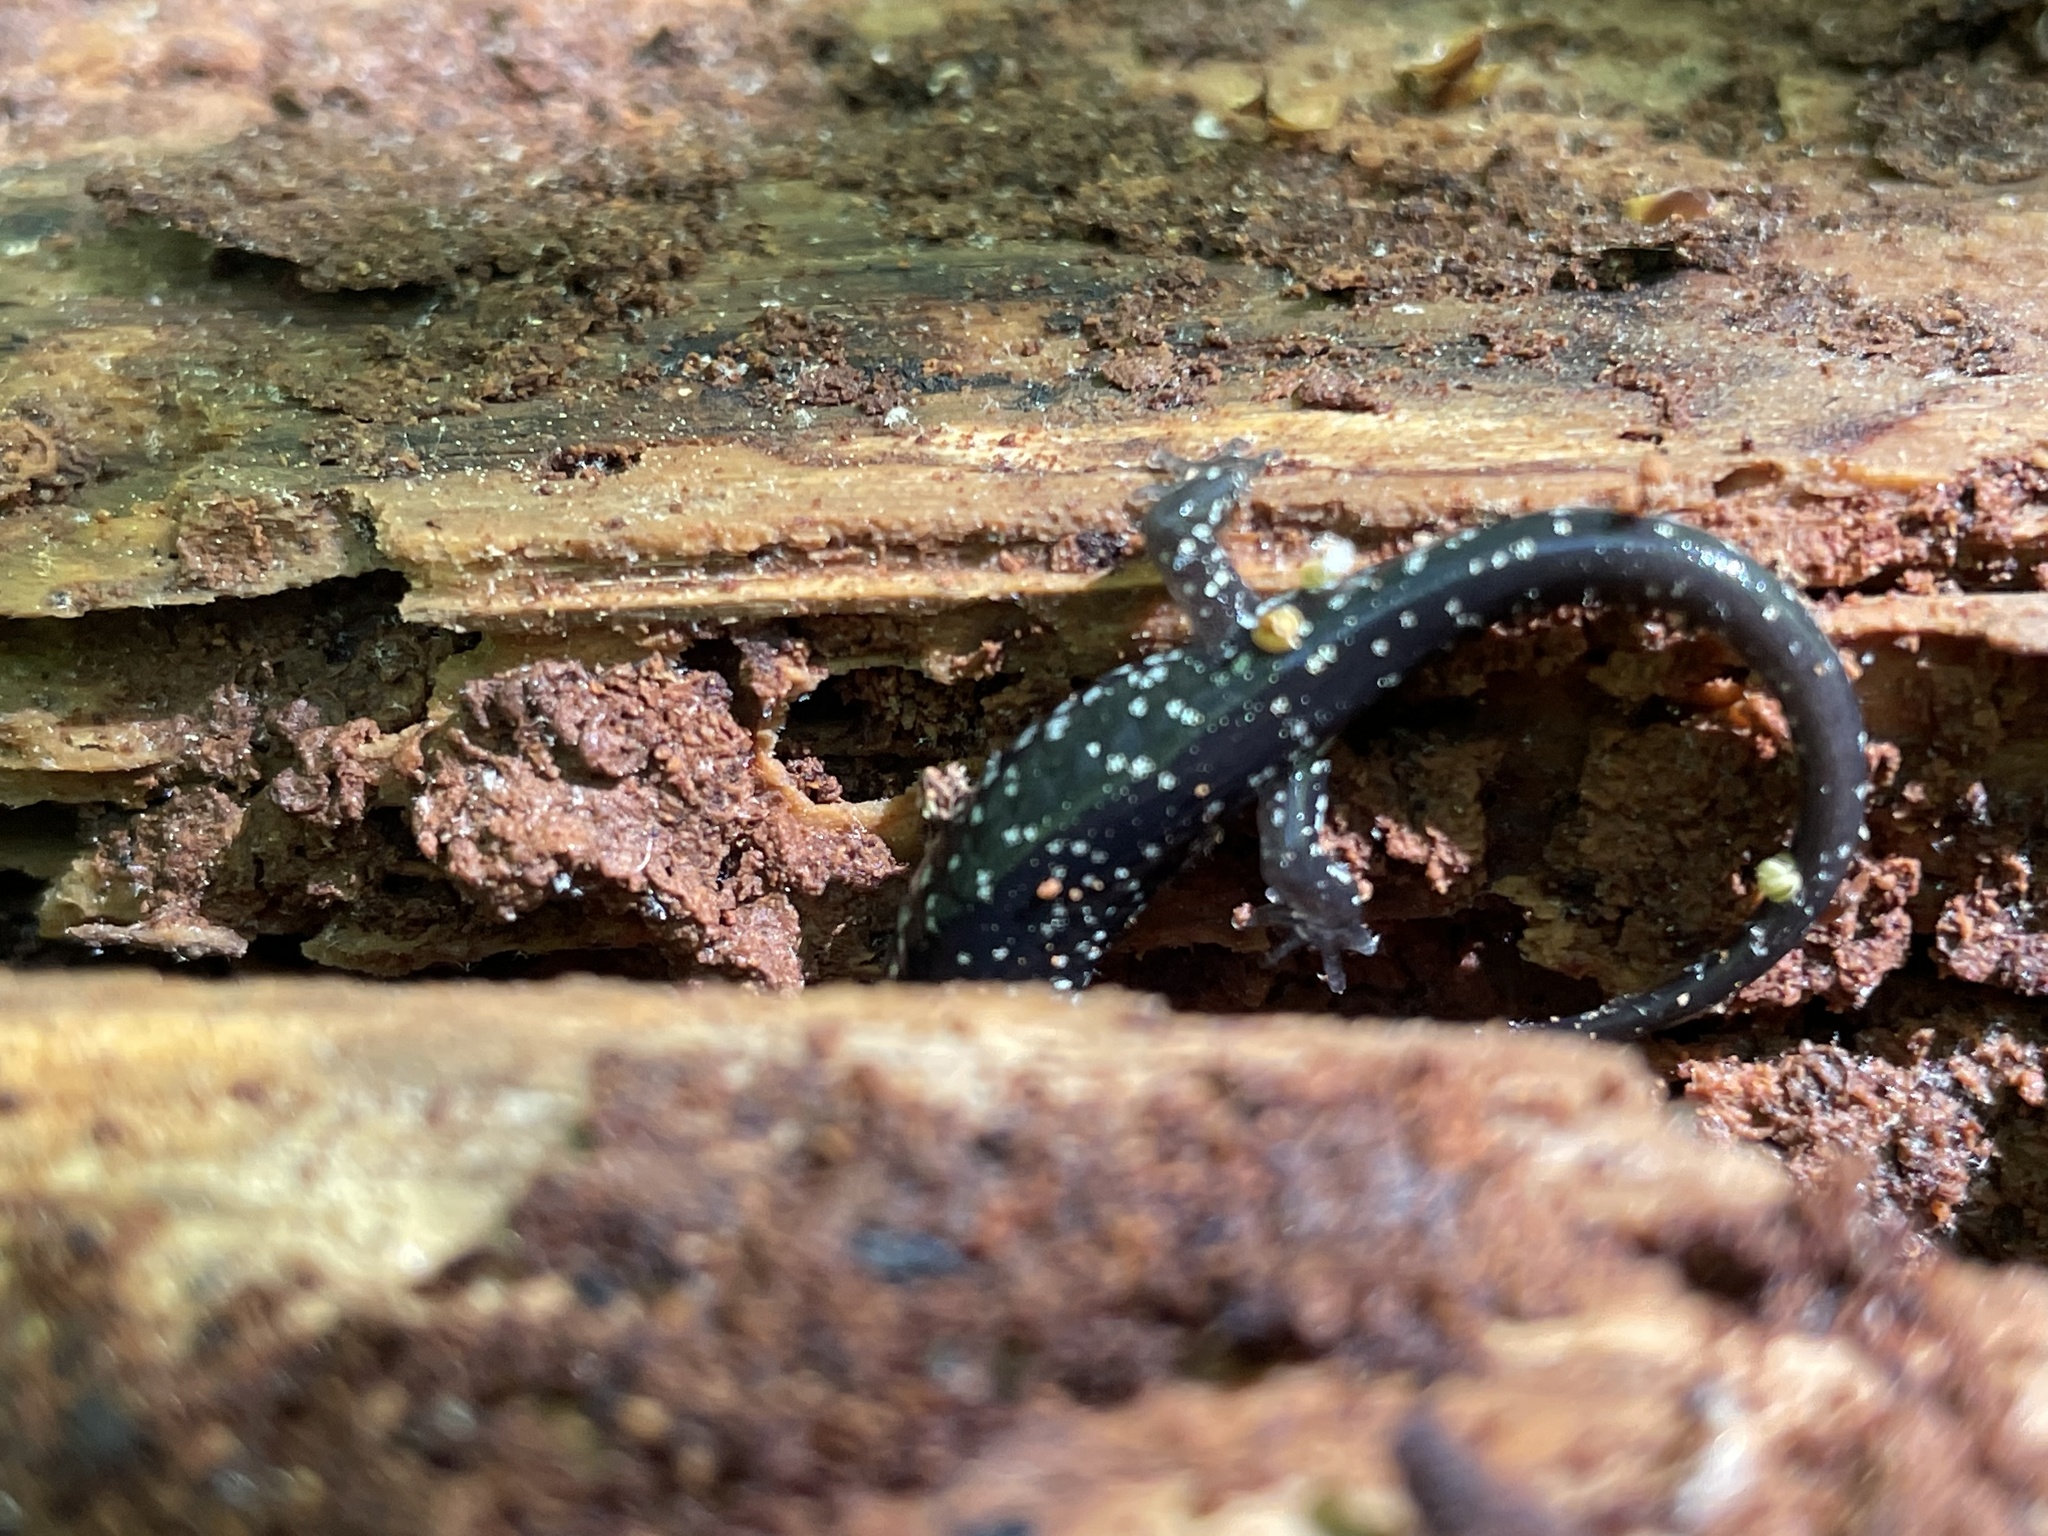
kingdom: Animalia
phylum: Chordata
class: Amphibia
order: Caudata
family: Plethodontidae
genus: Plethodon
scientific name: Plethodon glutinosus
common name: Northern slimy salamander
